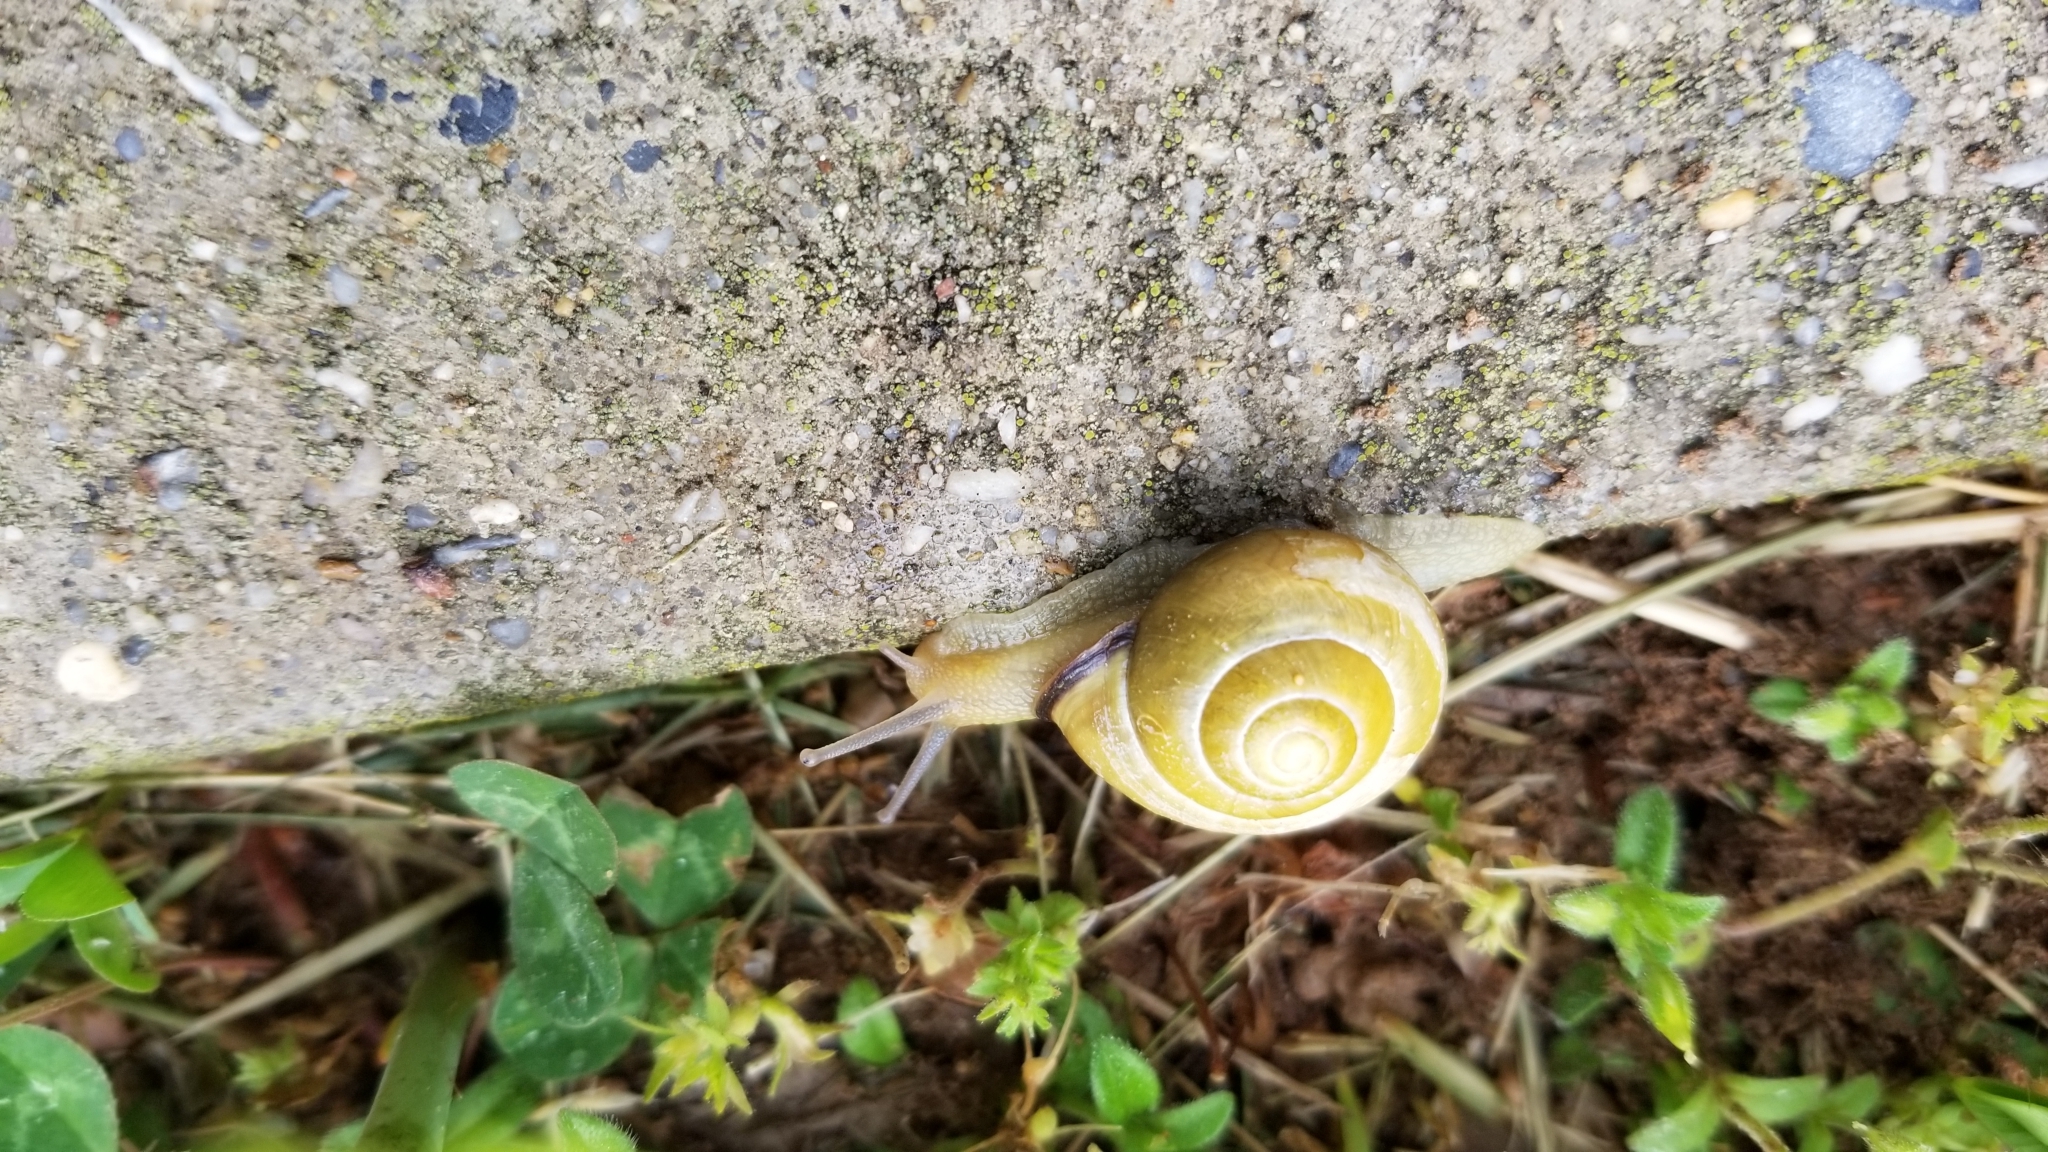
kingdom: Animalia
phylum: Mollusca
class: Gastropoda
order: Stylommatophora
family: Helicidae
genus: Cepaea
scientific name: Cepaea nemoralis
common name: Grovesnail
